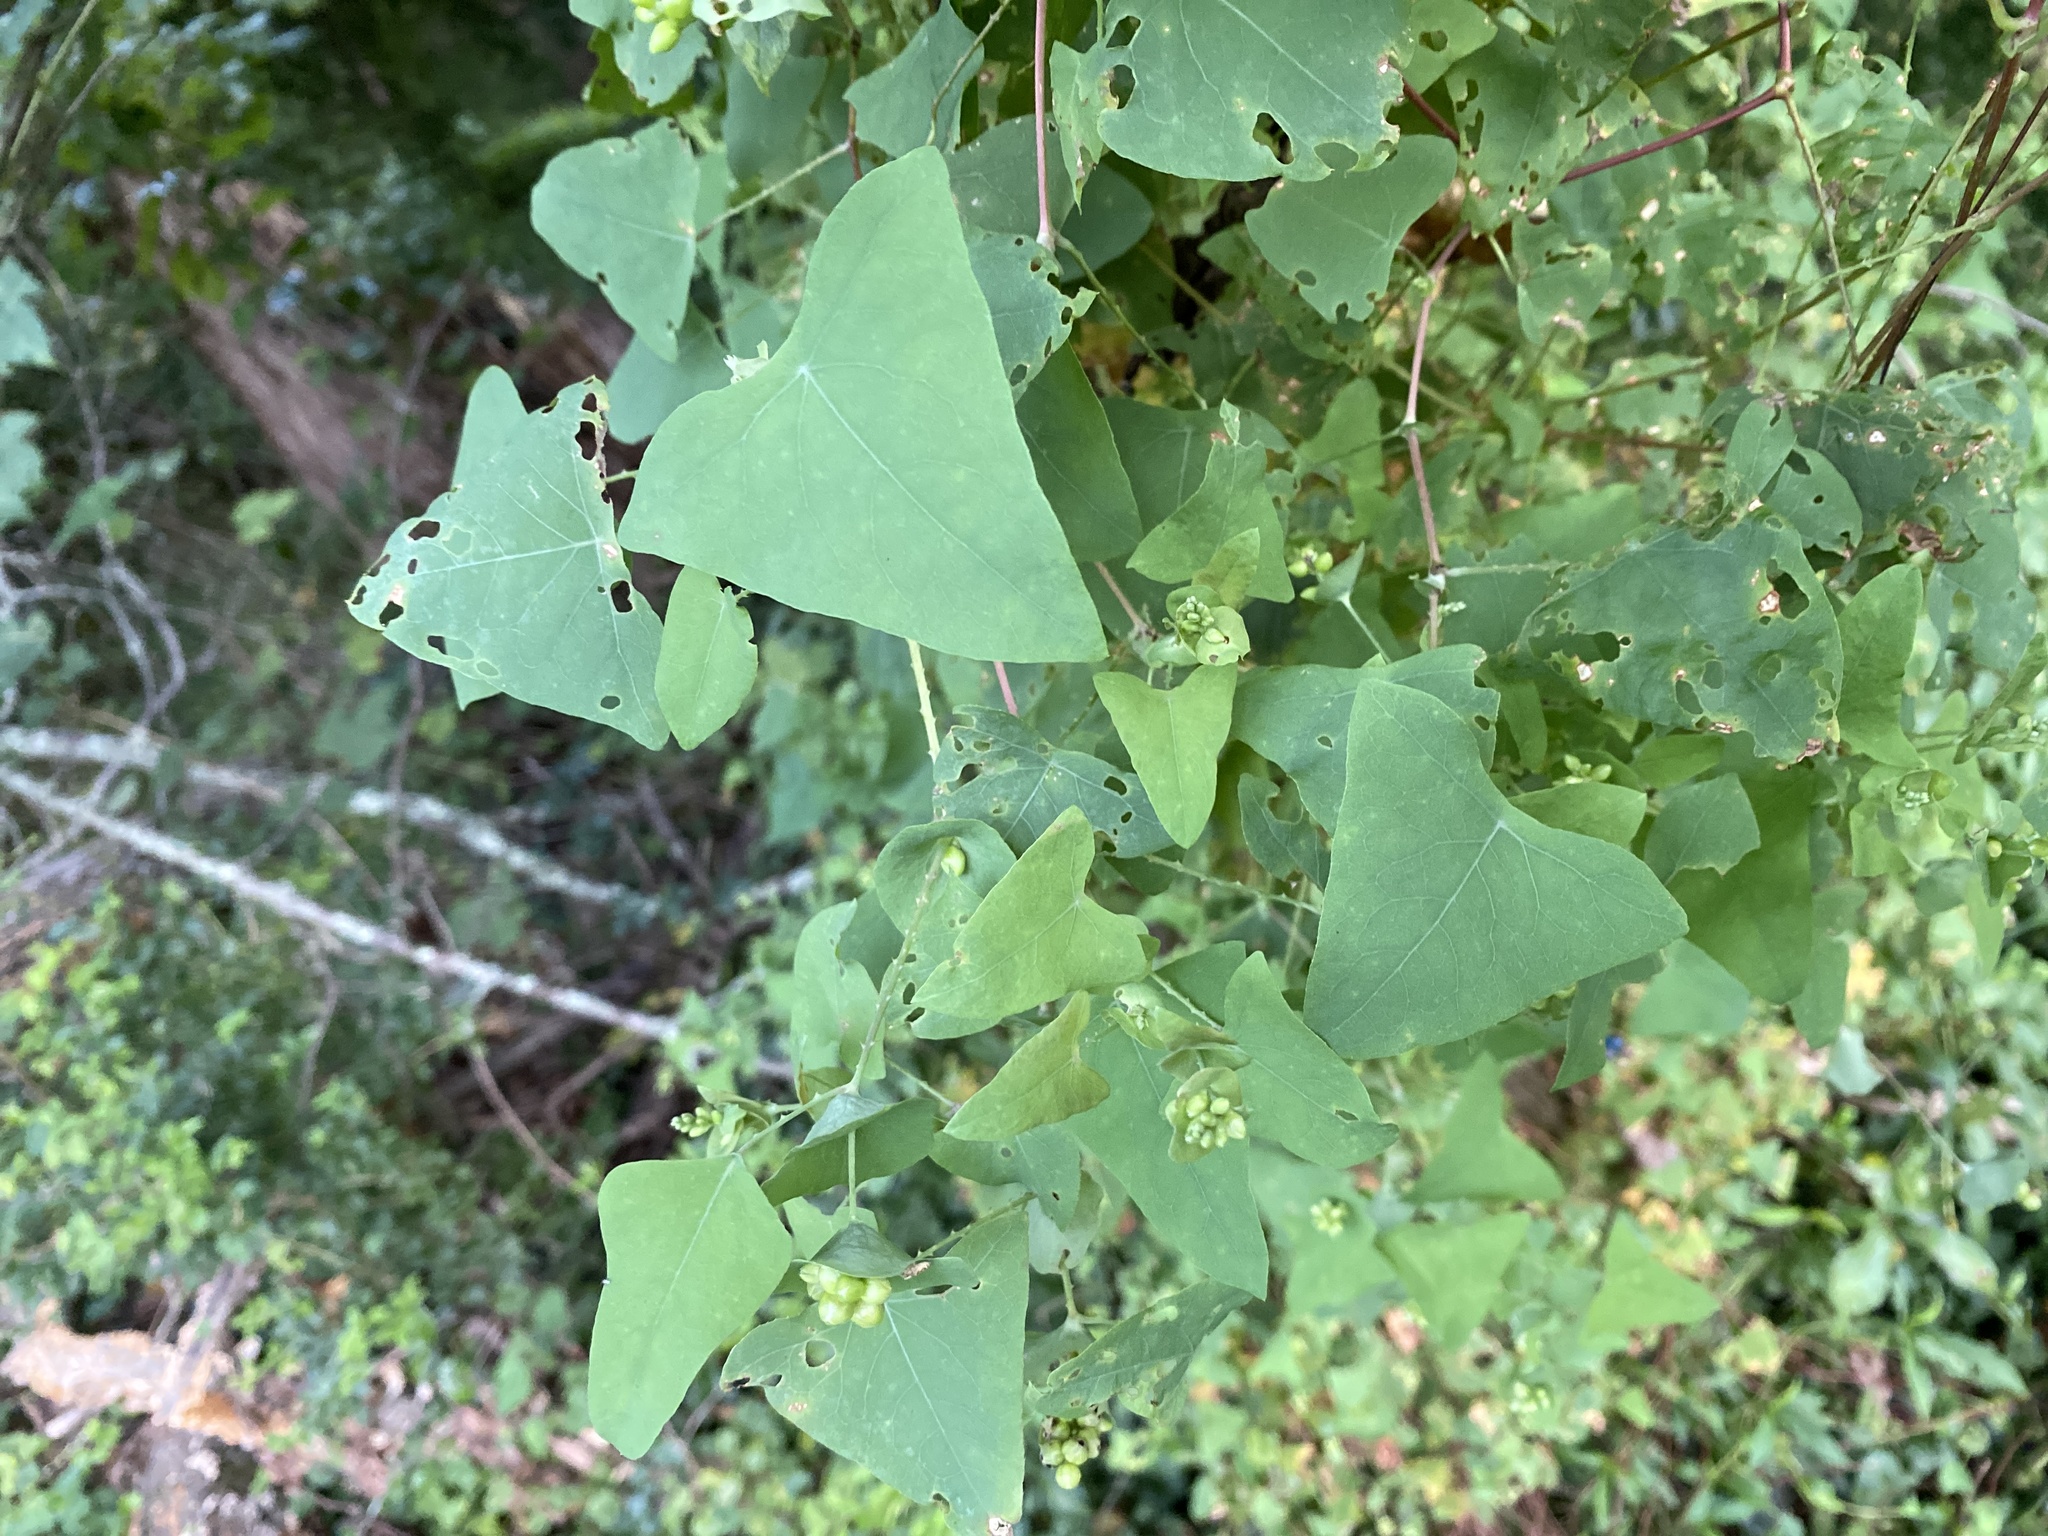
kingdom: Plantae
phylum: Tracheophyta
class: Magnoliopsida
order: Caryophyllales
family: Polygonaceae
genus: Persicaria
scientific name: Persicaria perfoliata
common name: Asiatic tearthumb
